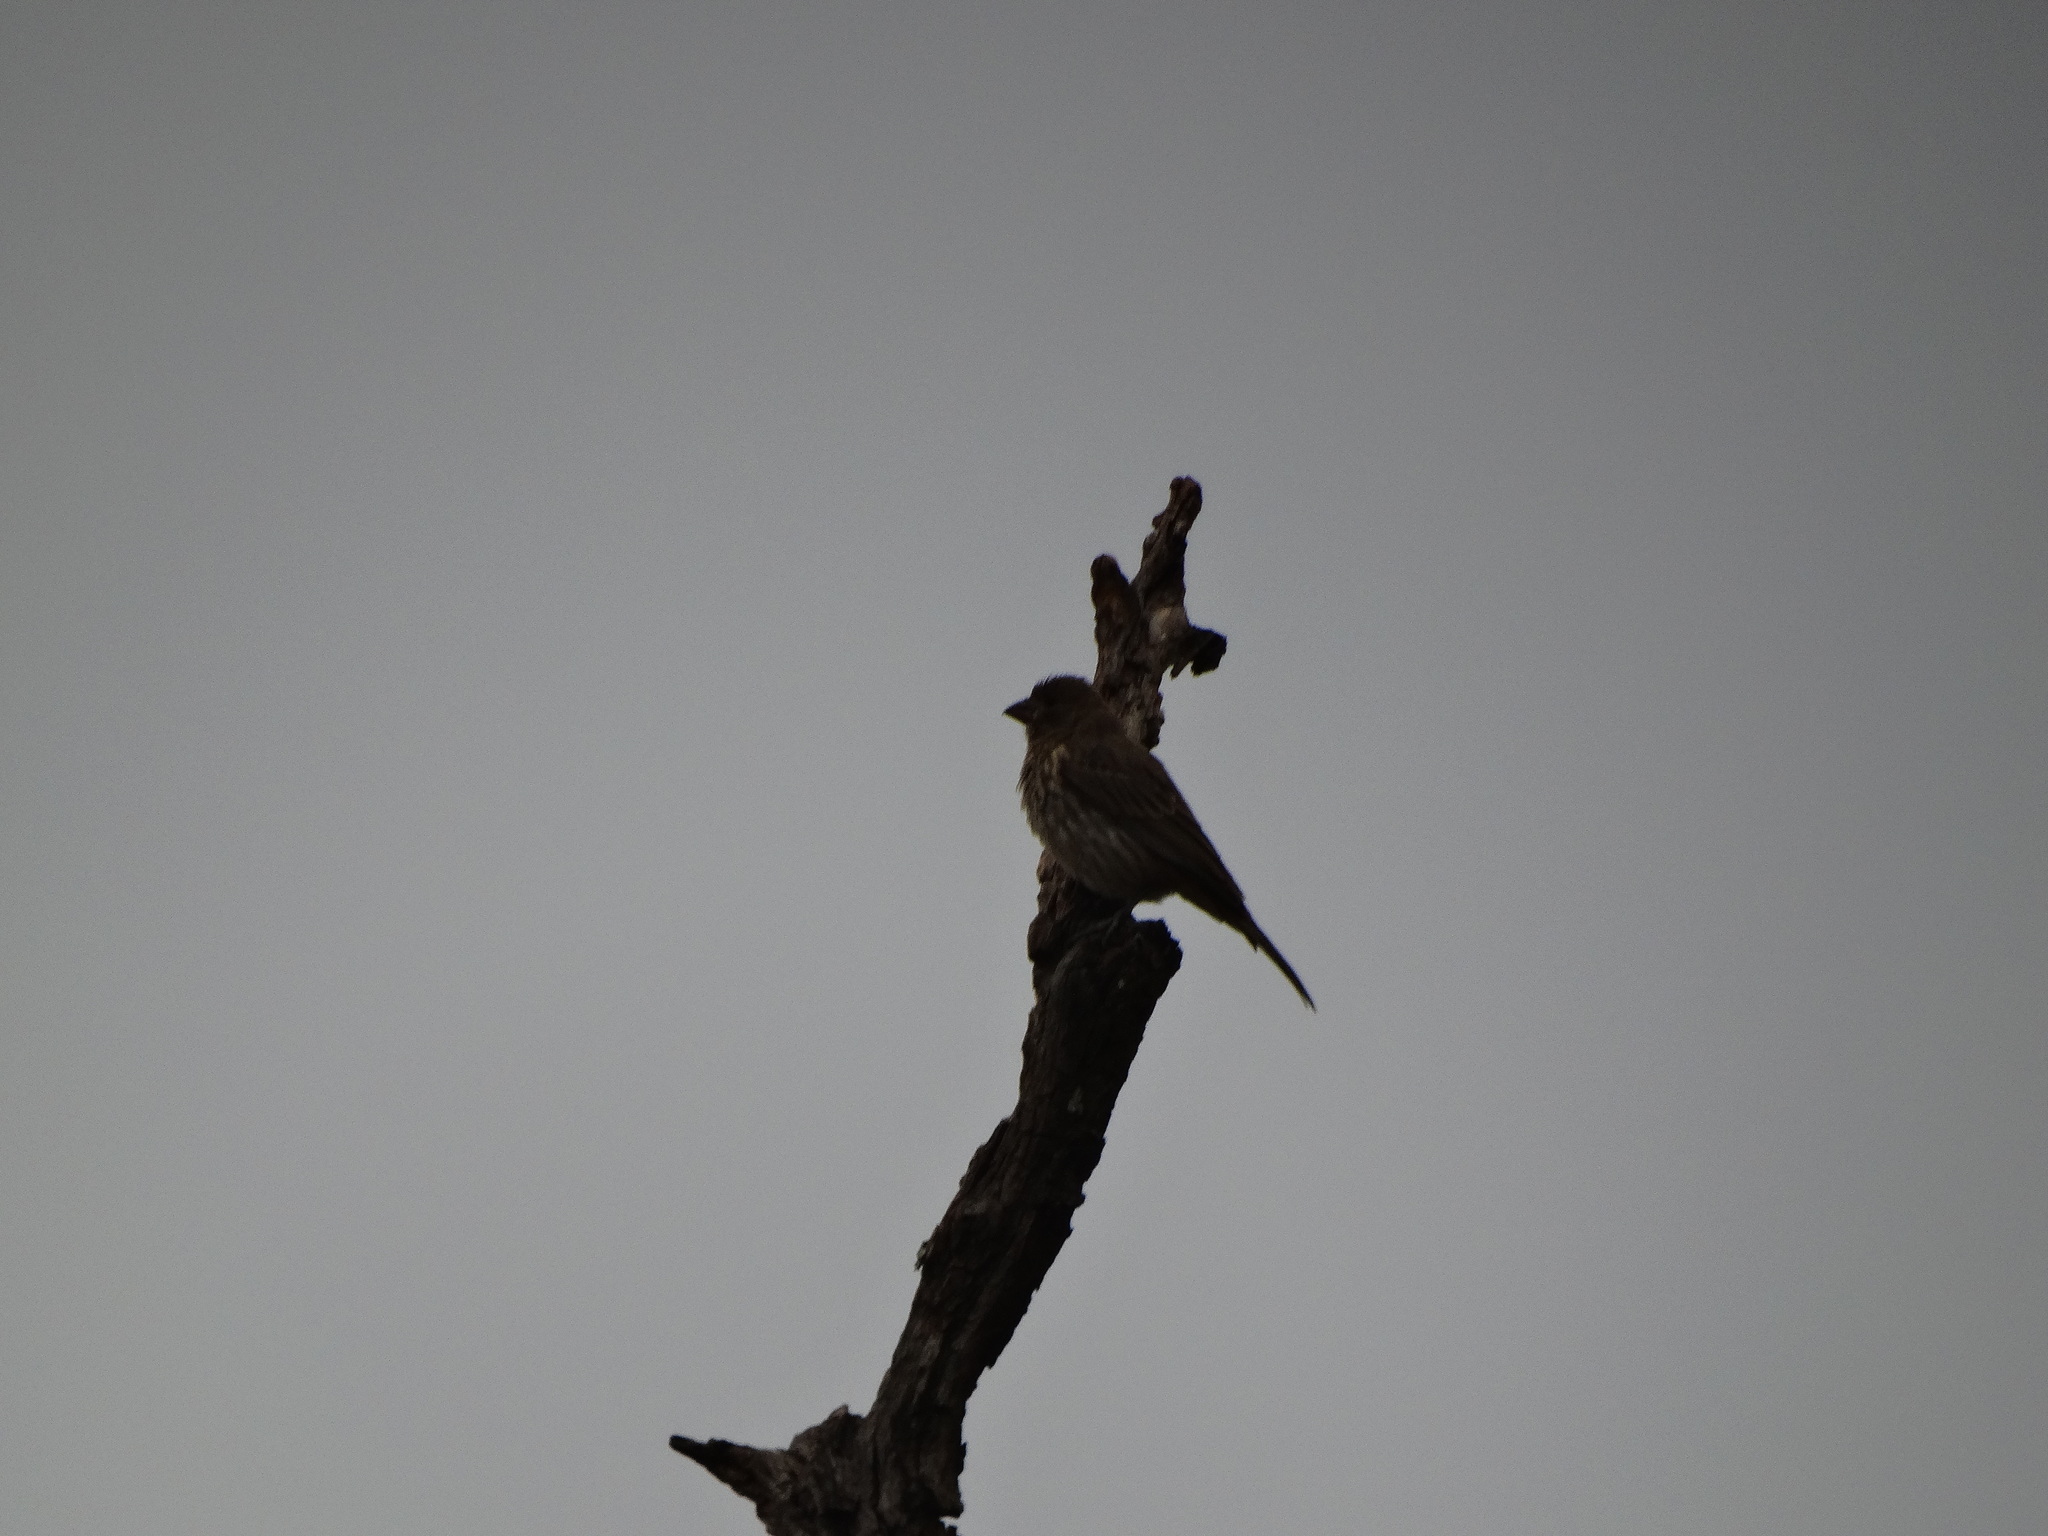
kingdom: Animalia
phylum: Chordata
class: Aves
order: Passeriformes
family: Fringillidae
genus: Haemorhous
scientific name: Haemorhous mexicanus
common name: House finch
